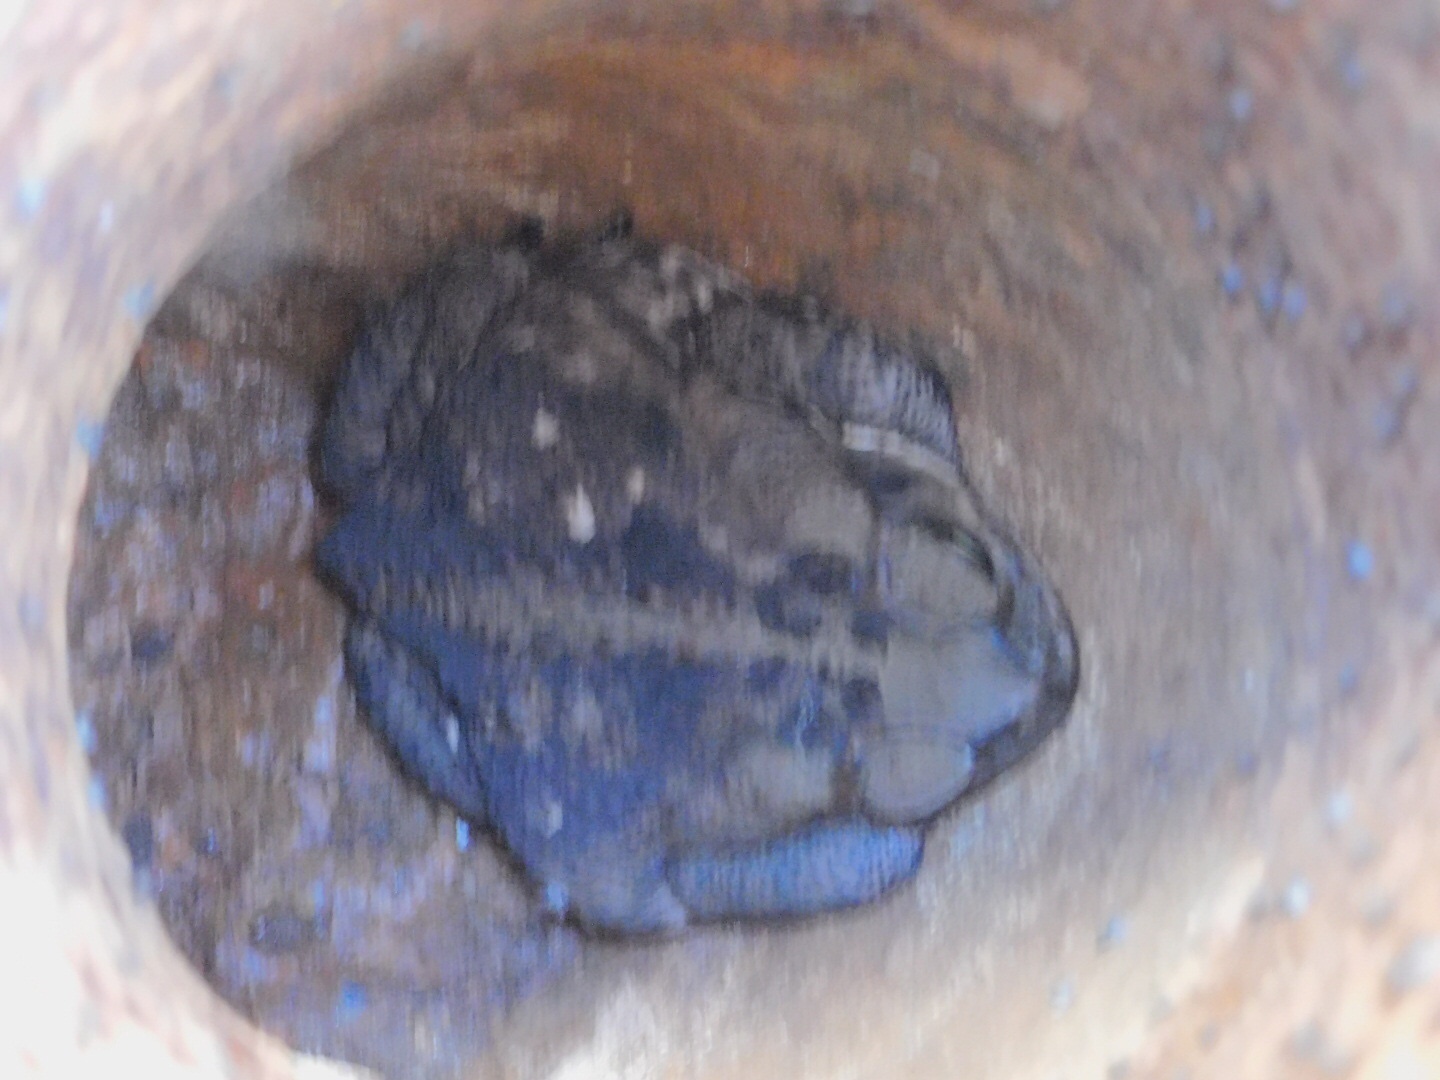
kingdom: Animalia
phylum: Chordata
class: Amphibia
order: Anura
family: Bufonidae
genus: Rhinella
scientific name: Rhinella marina
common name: Cane toad
